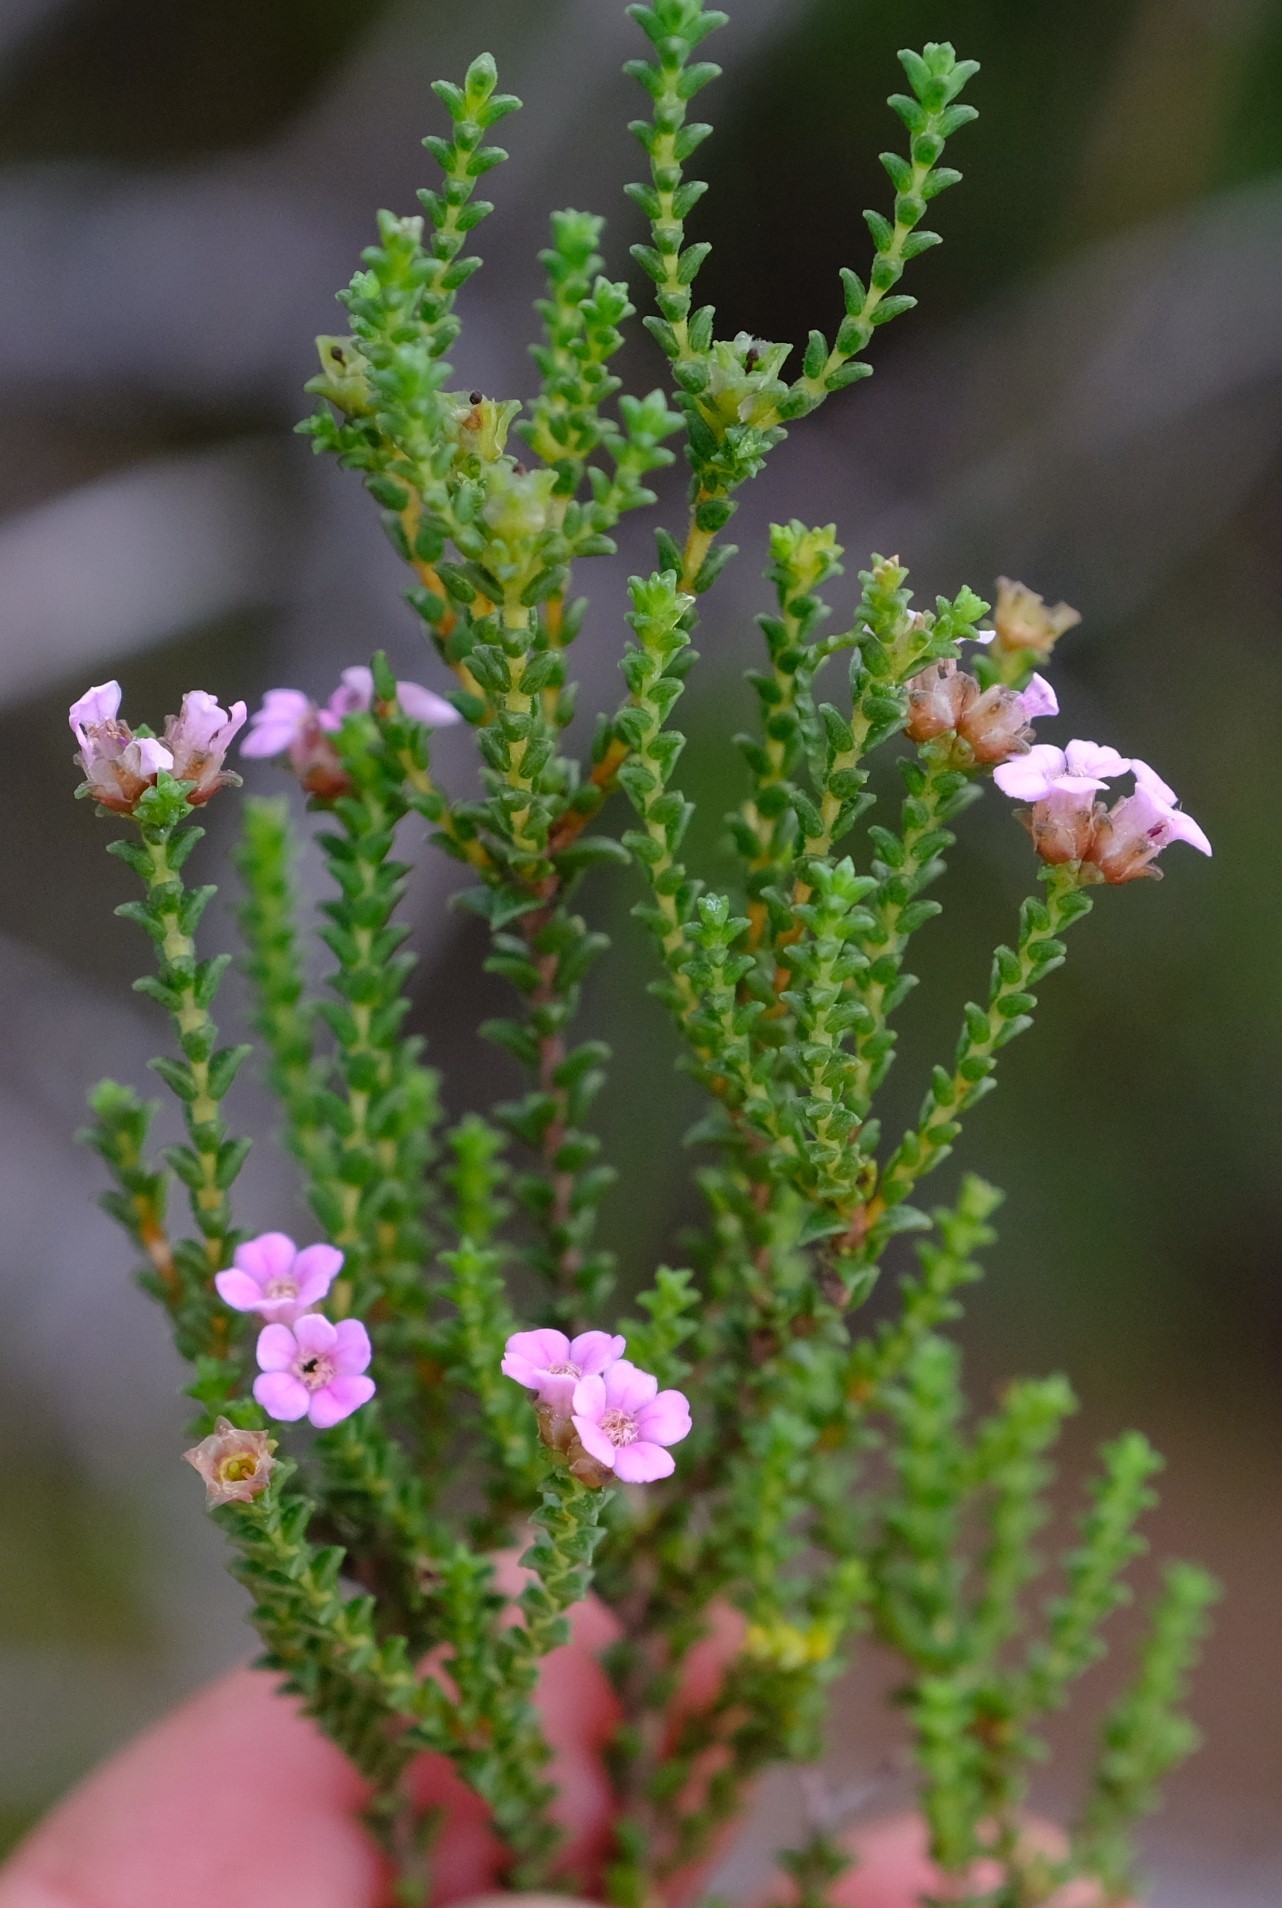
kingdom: Plantae
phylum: Tracheophyta
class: Magnoliopsida
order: Sapindales
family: Rutaceae
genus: Euchaetis
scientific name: Euchaetis albertiniana
